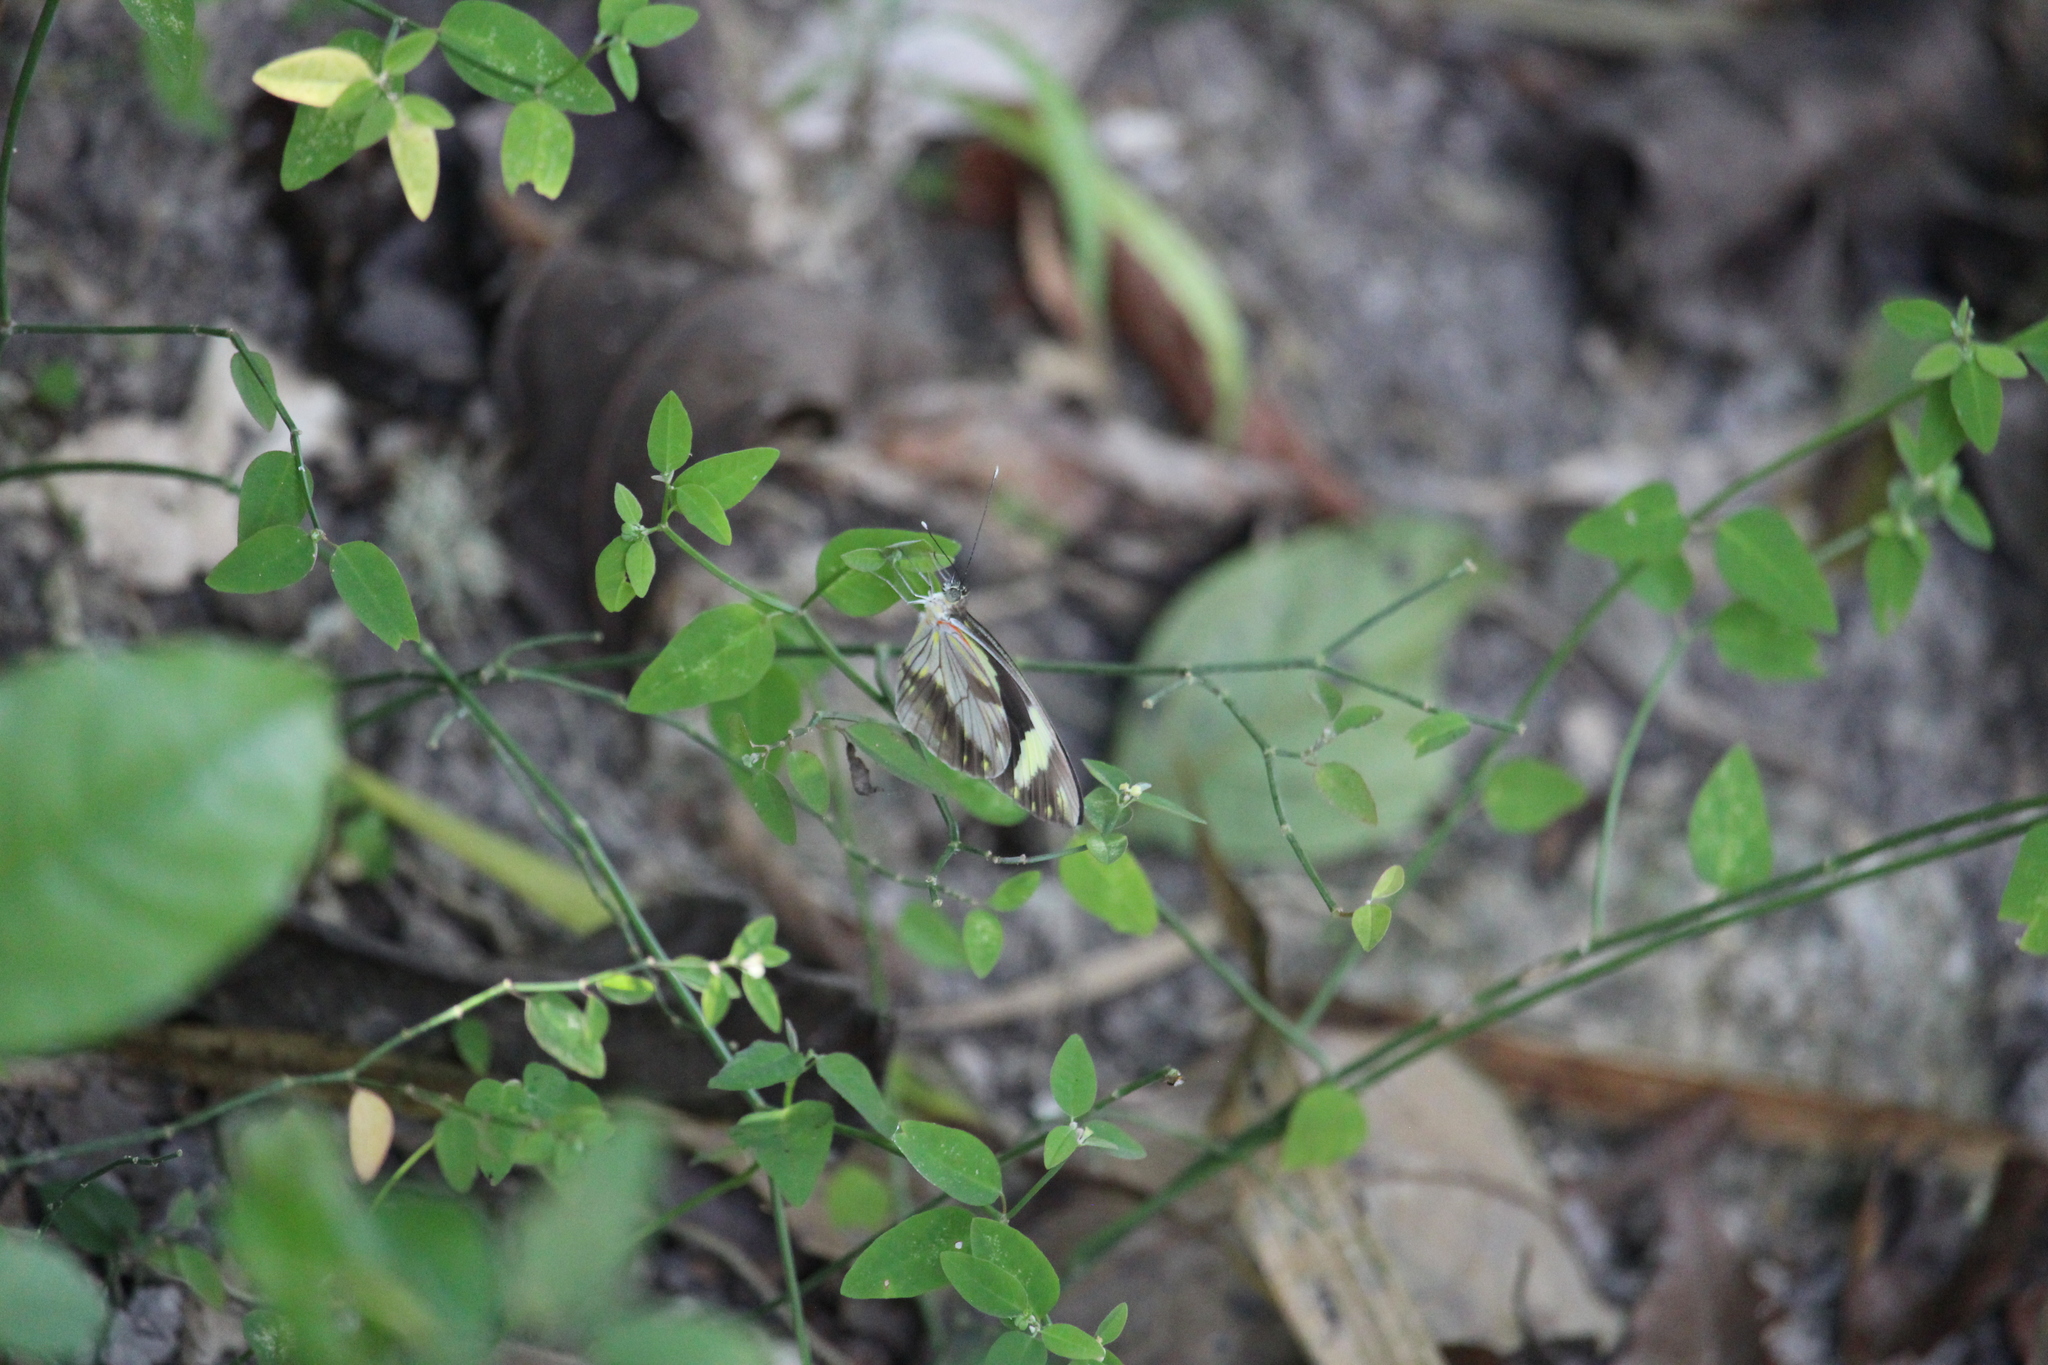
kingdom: Animalia
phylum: Arthropoda
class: Insecta
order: Lepidoptera
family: Pieridae
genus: Pieriballia
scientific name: Pieriballia viardi
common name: Painted white
